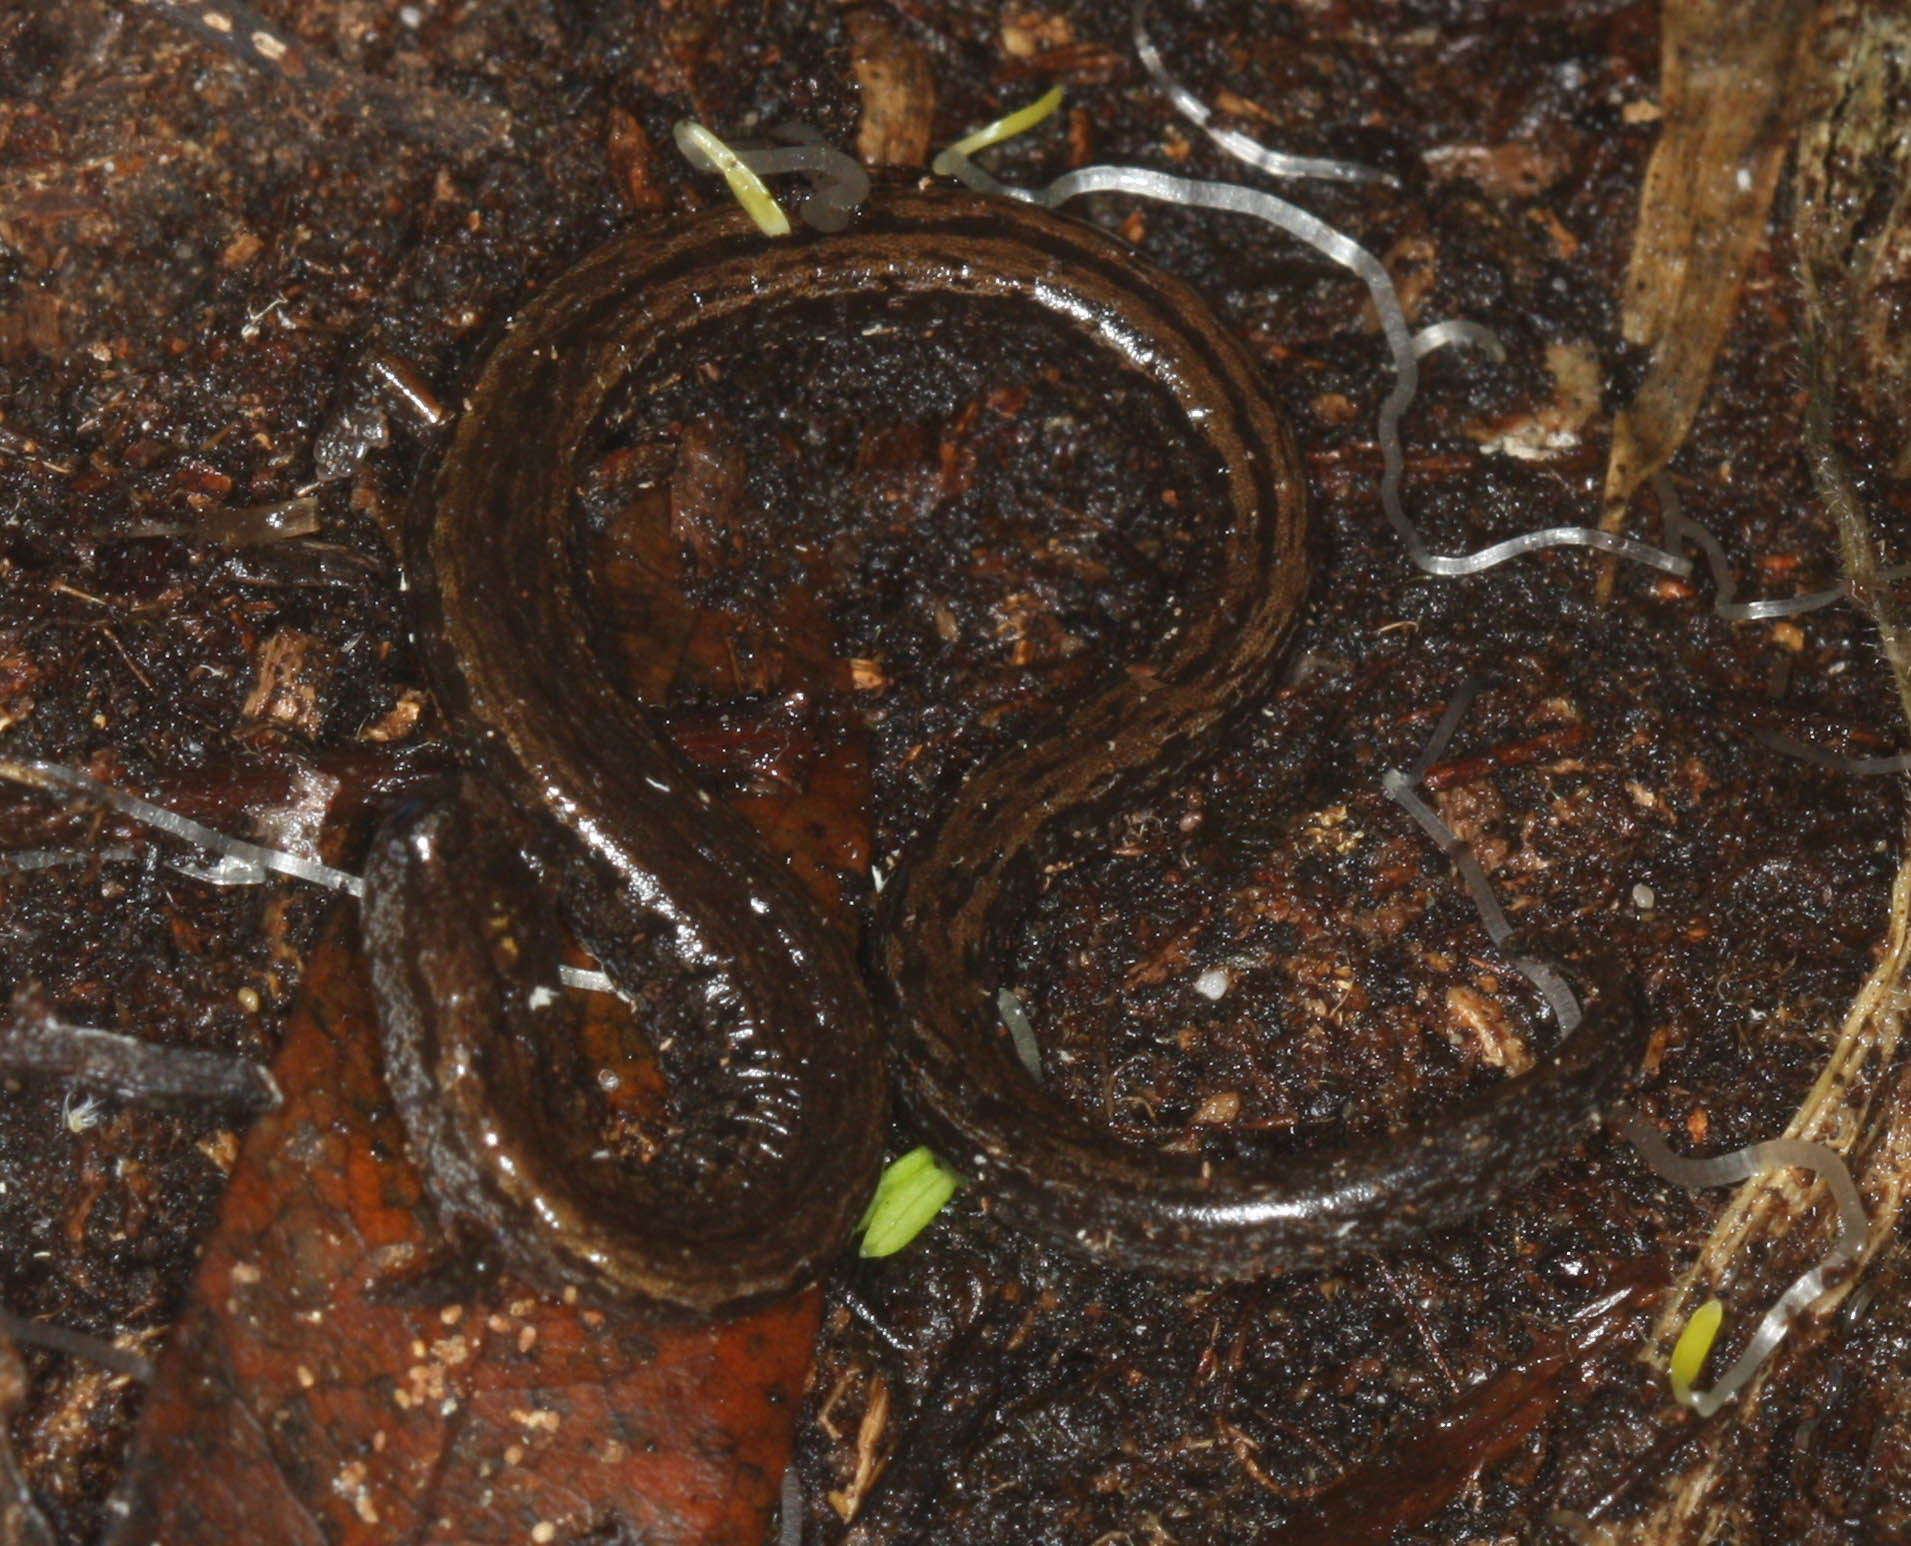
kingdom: Animalia
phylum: Chordata
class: Amphibia
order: Caudata
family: Plethodontidae
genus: Batrachoseps
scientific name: Batrachoseps attenuatus
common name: California slender salamander
